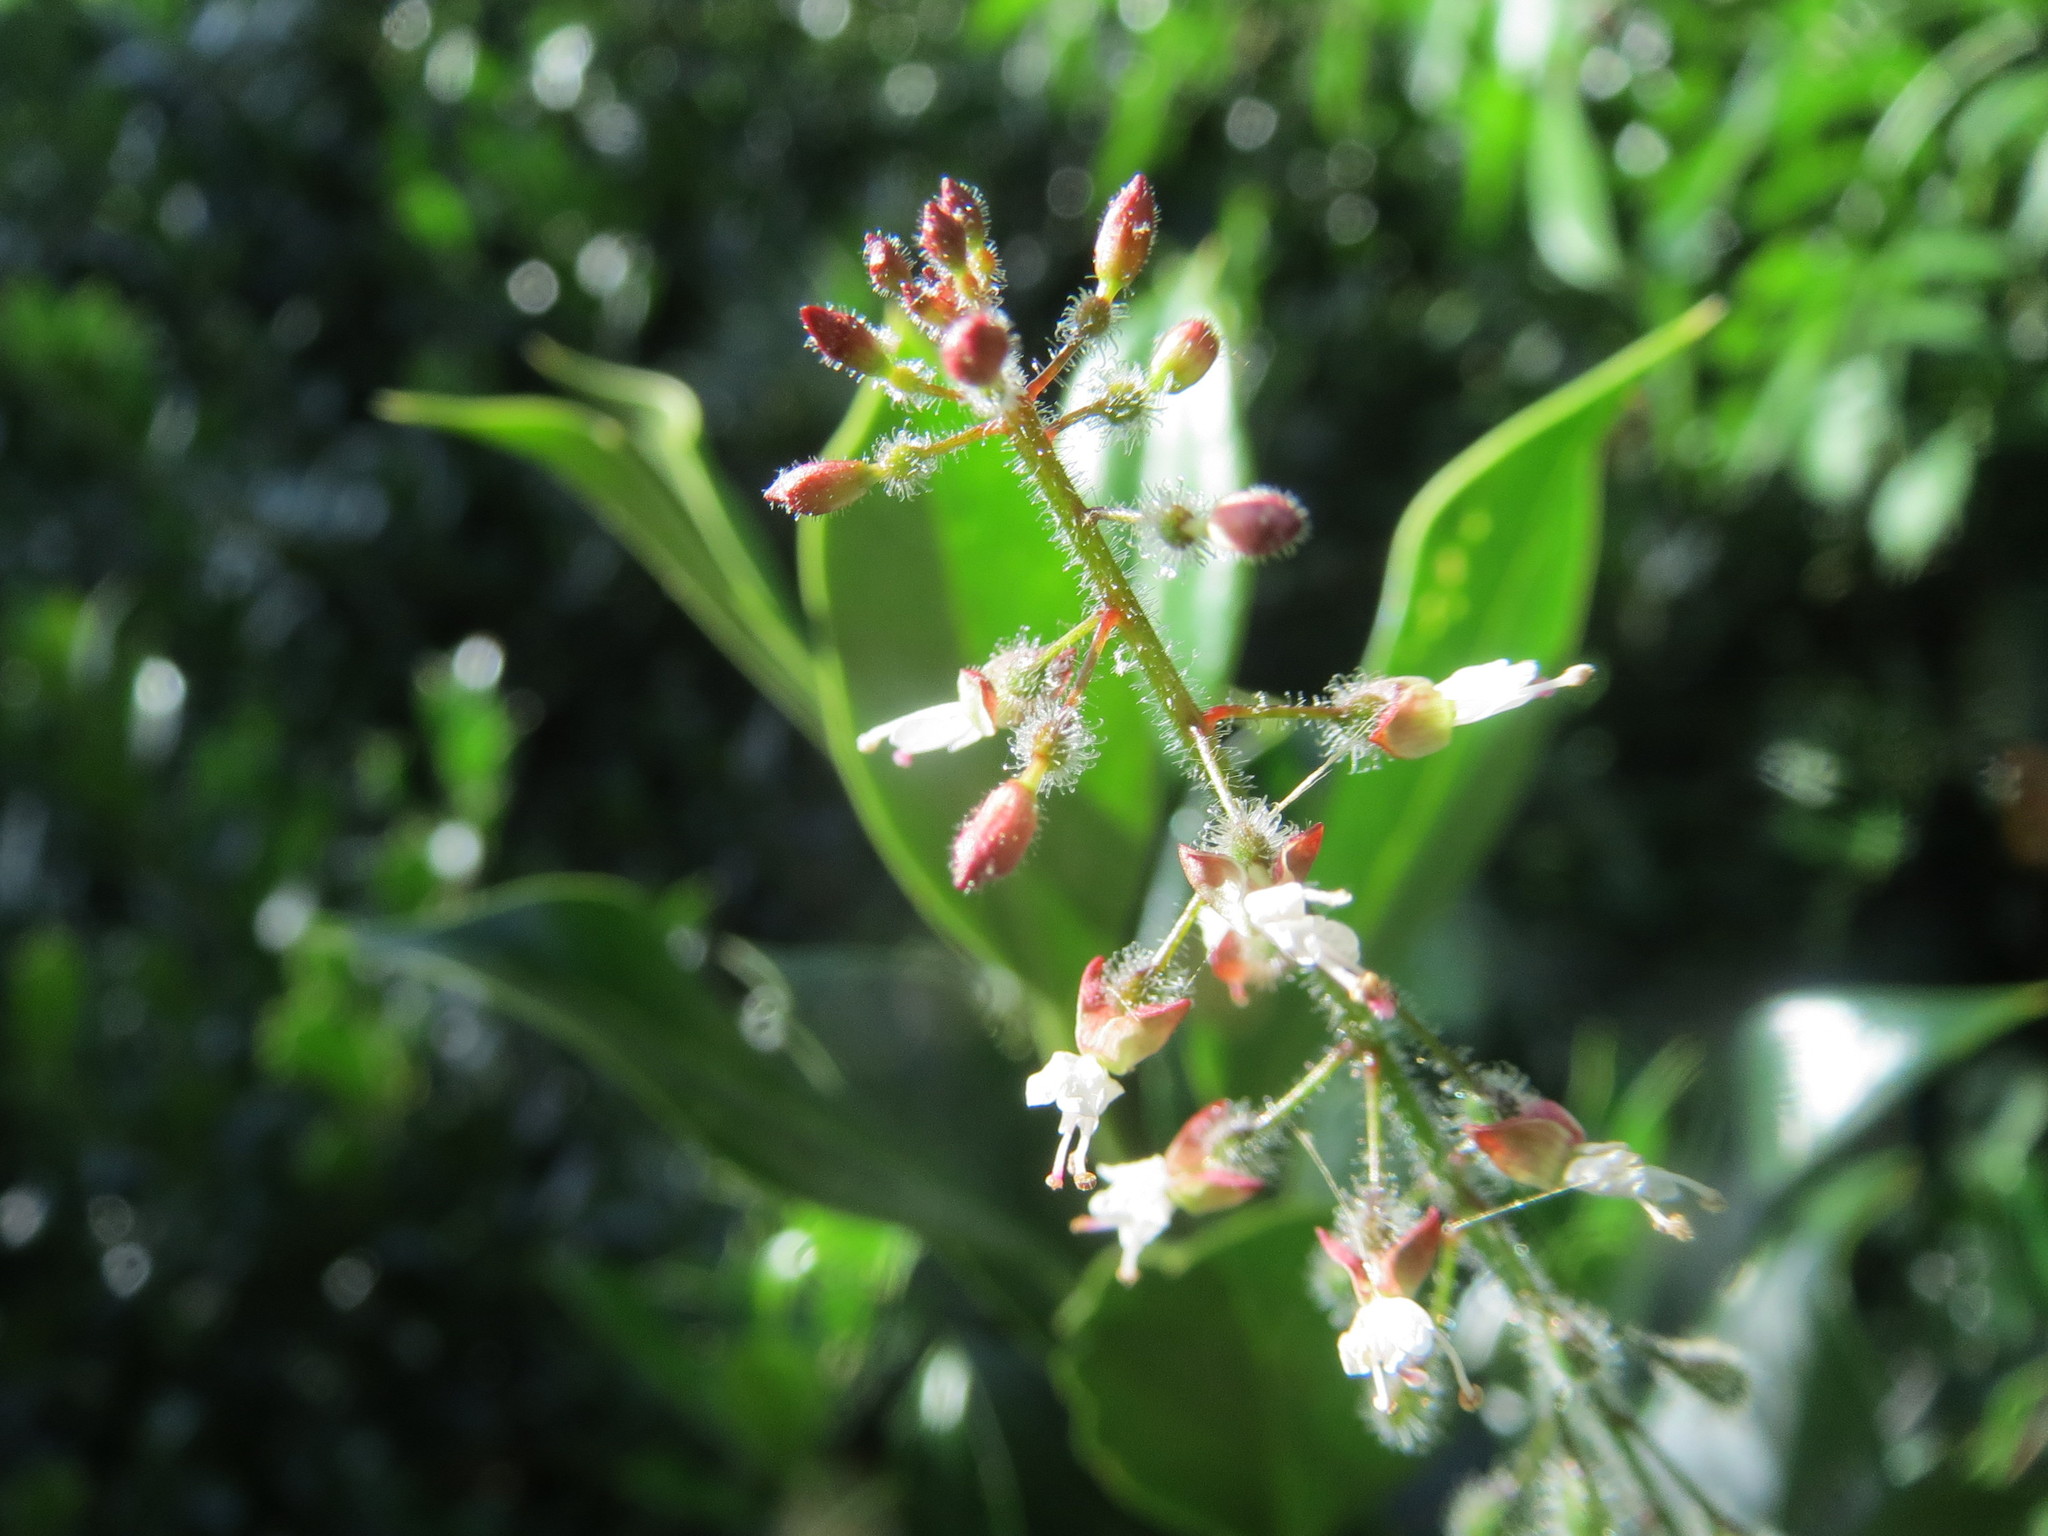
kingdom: Plantae
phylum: Tracheophyta
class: Magnoliopsida
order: Myrtales
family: Onagraceae
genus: Circaea
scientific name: Circaea lutetiana
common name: Enchanter's-nightshade
